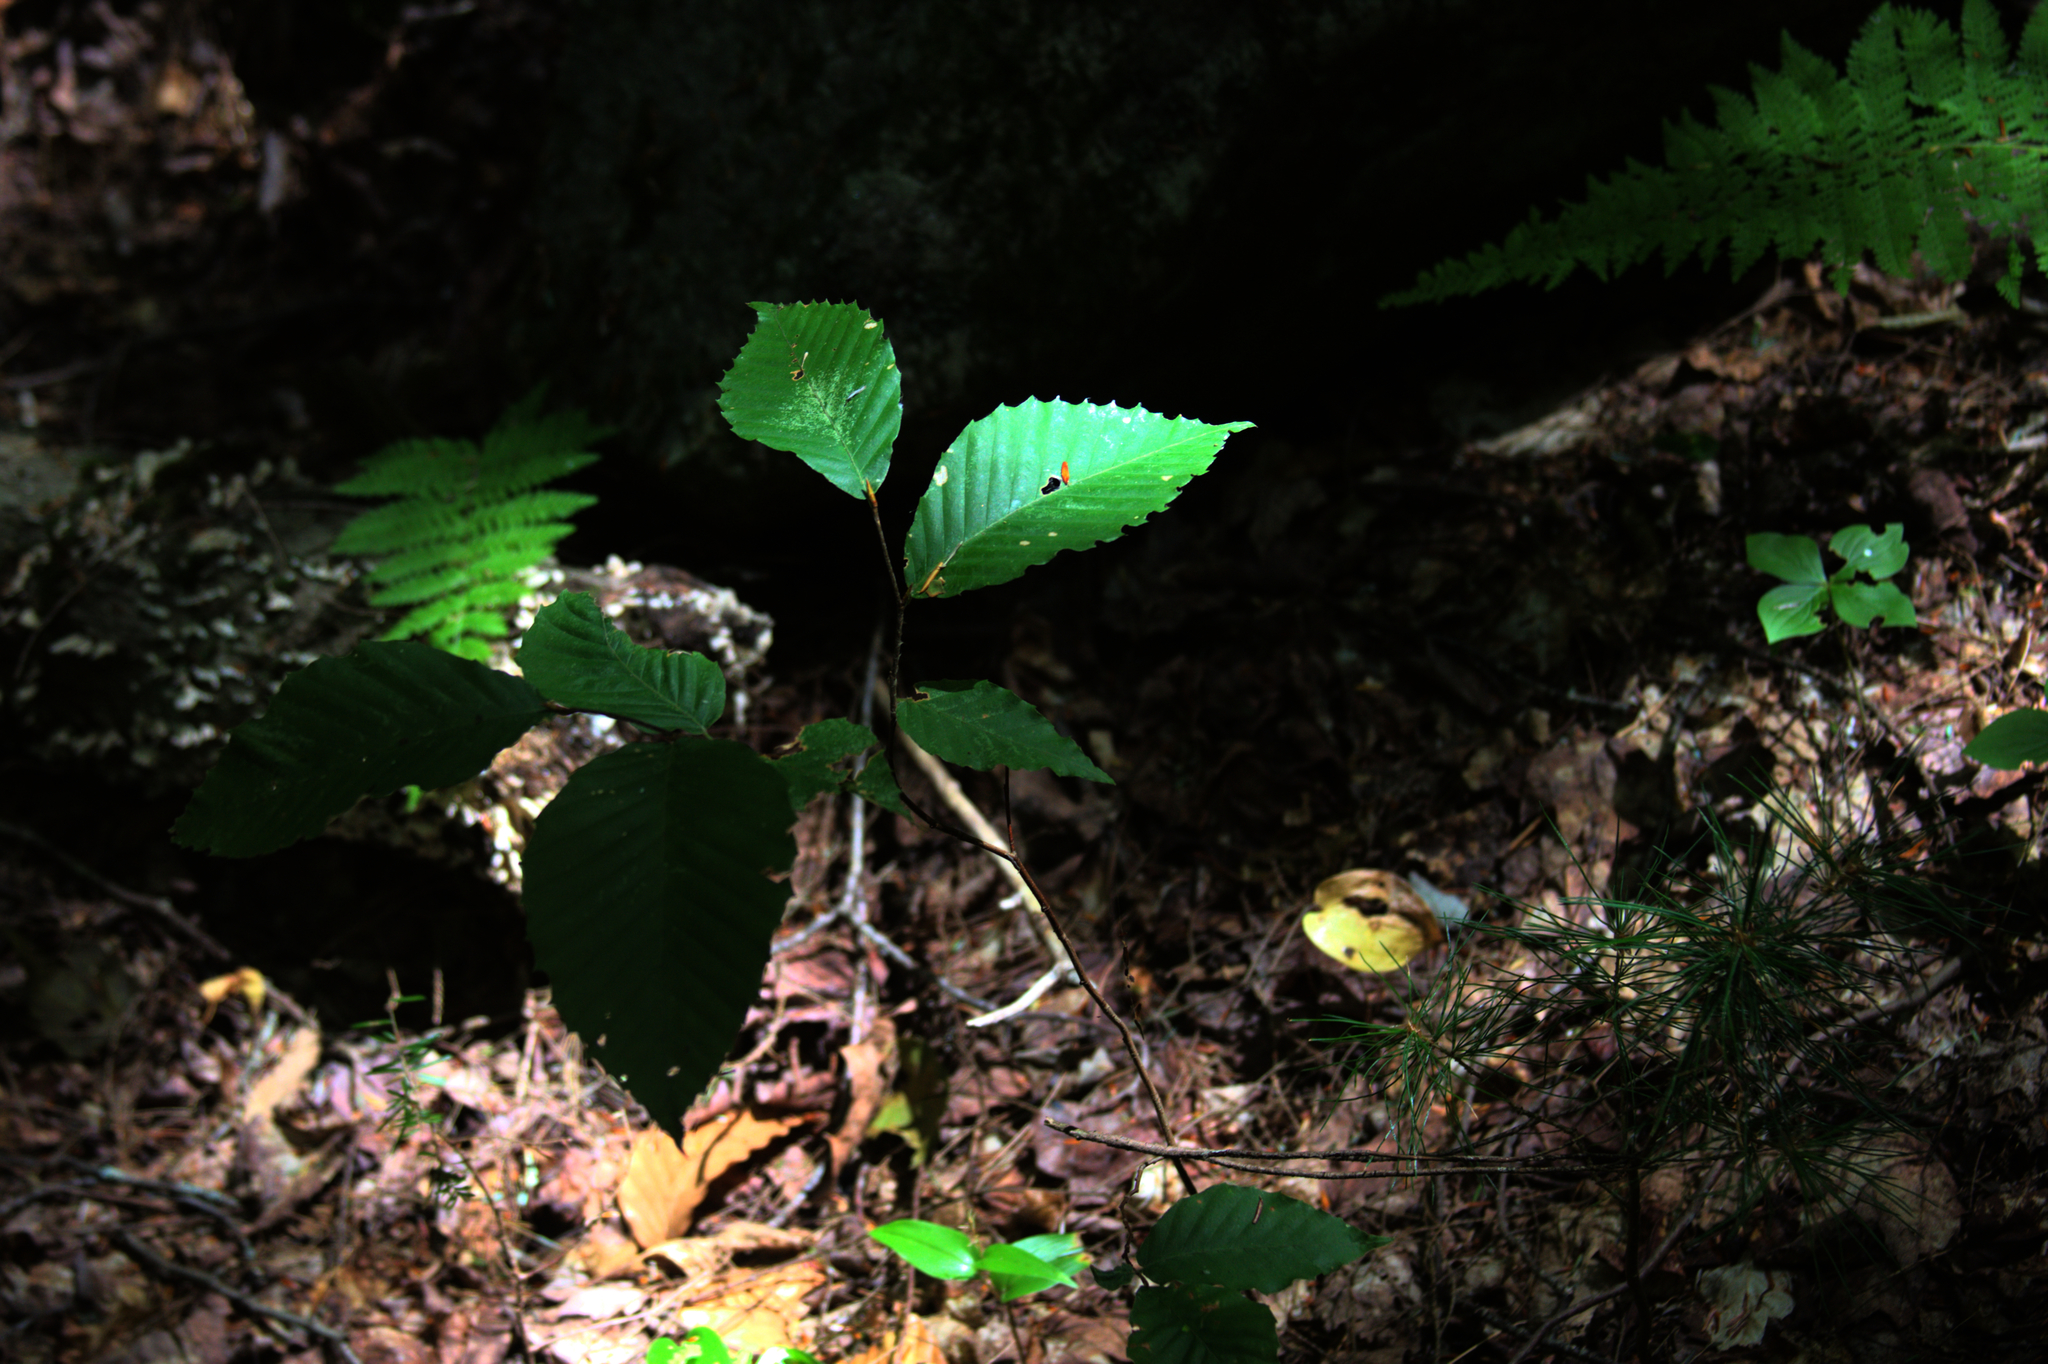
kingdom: Plantae
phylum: Tracheophyta
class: Pinopsida
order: Pinales
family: Pinaceae
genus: Pinus
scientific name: Pinus strobus
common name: Weymouth pine
